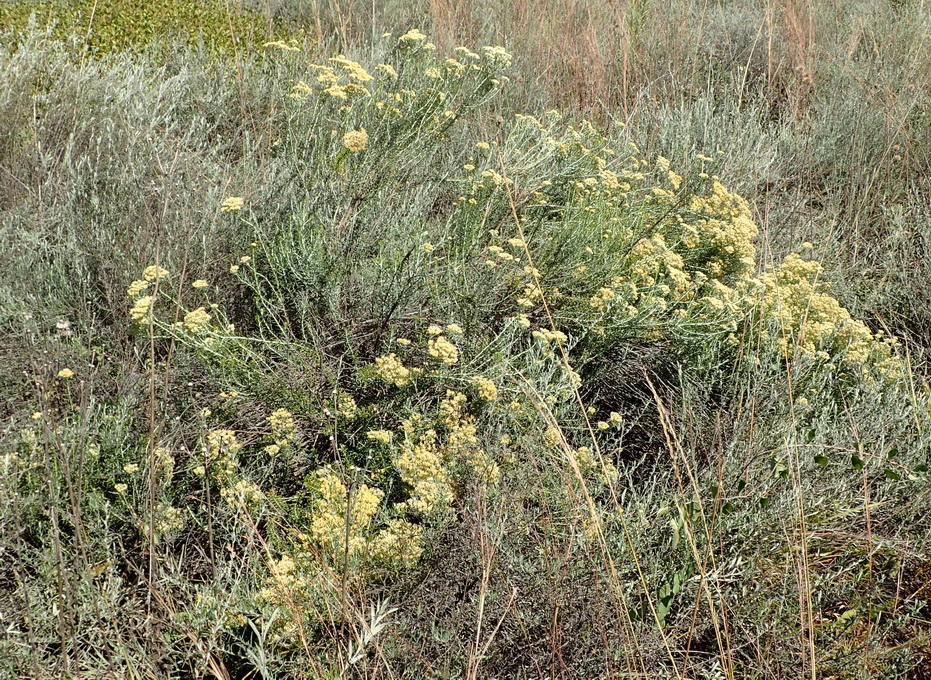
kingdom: Plantae
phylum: Tracheophyta
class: Magnoliopsida
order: Asterales
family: Asteraceae
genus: Helichrysum
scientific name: Helichrysum kraussii
